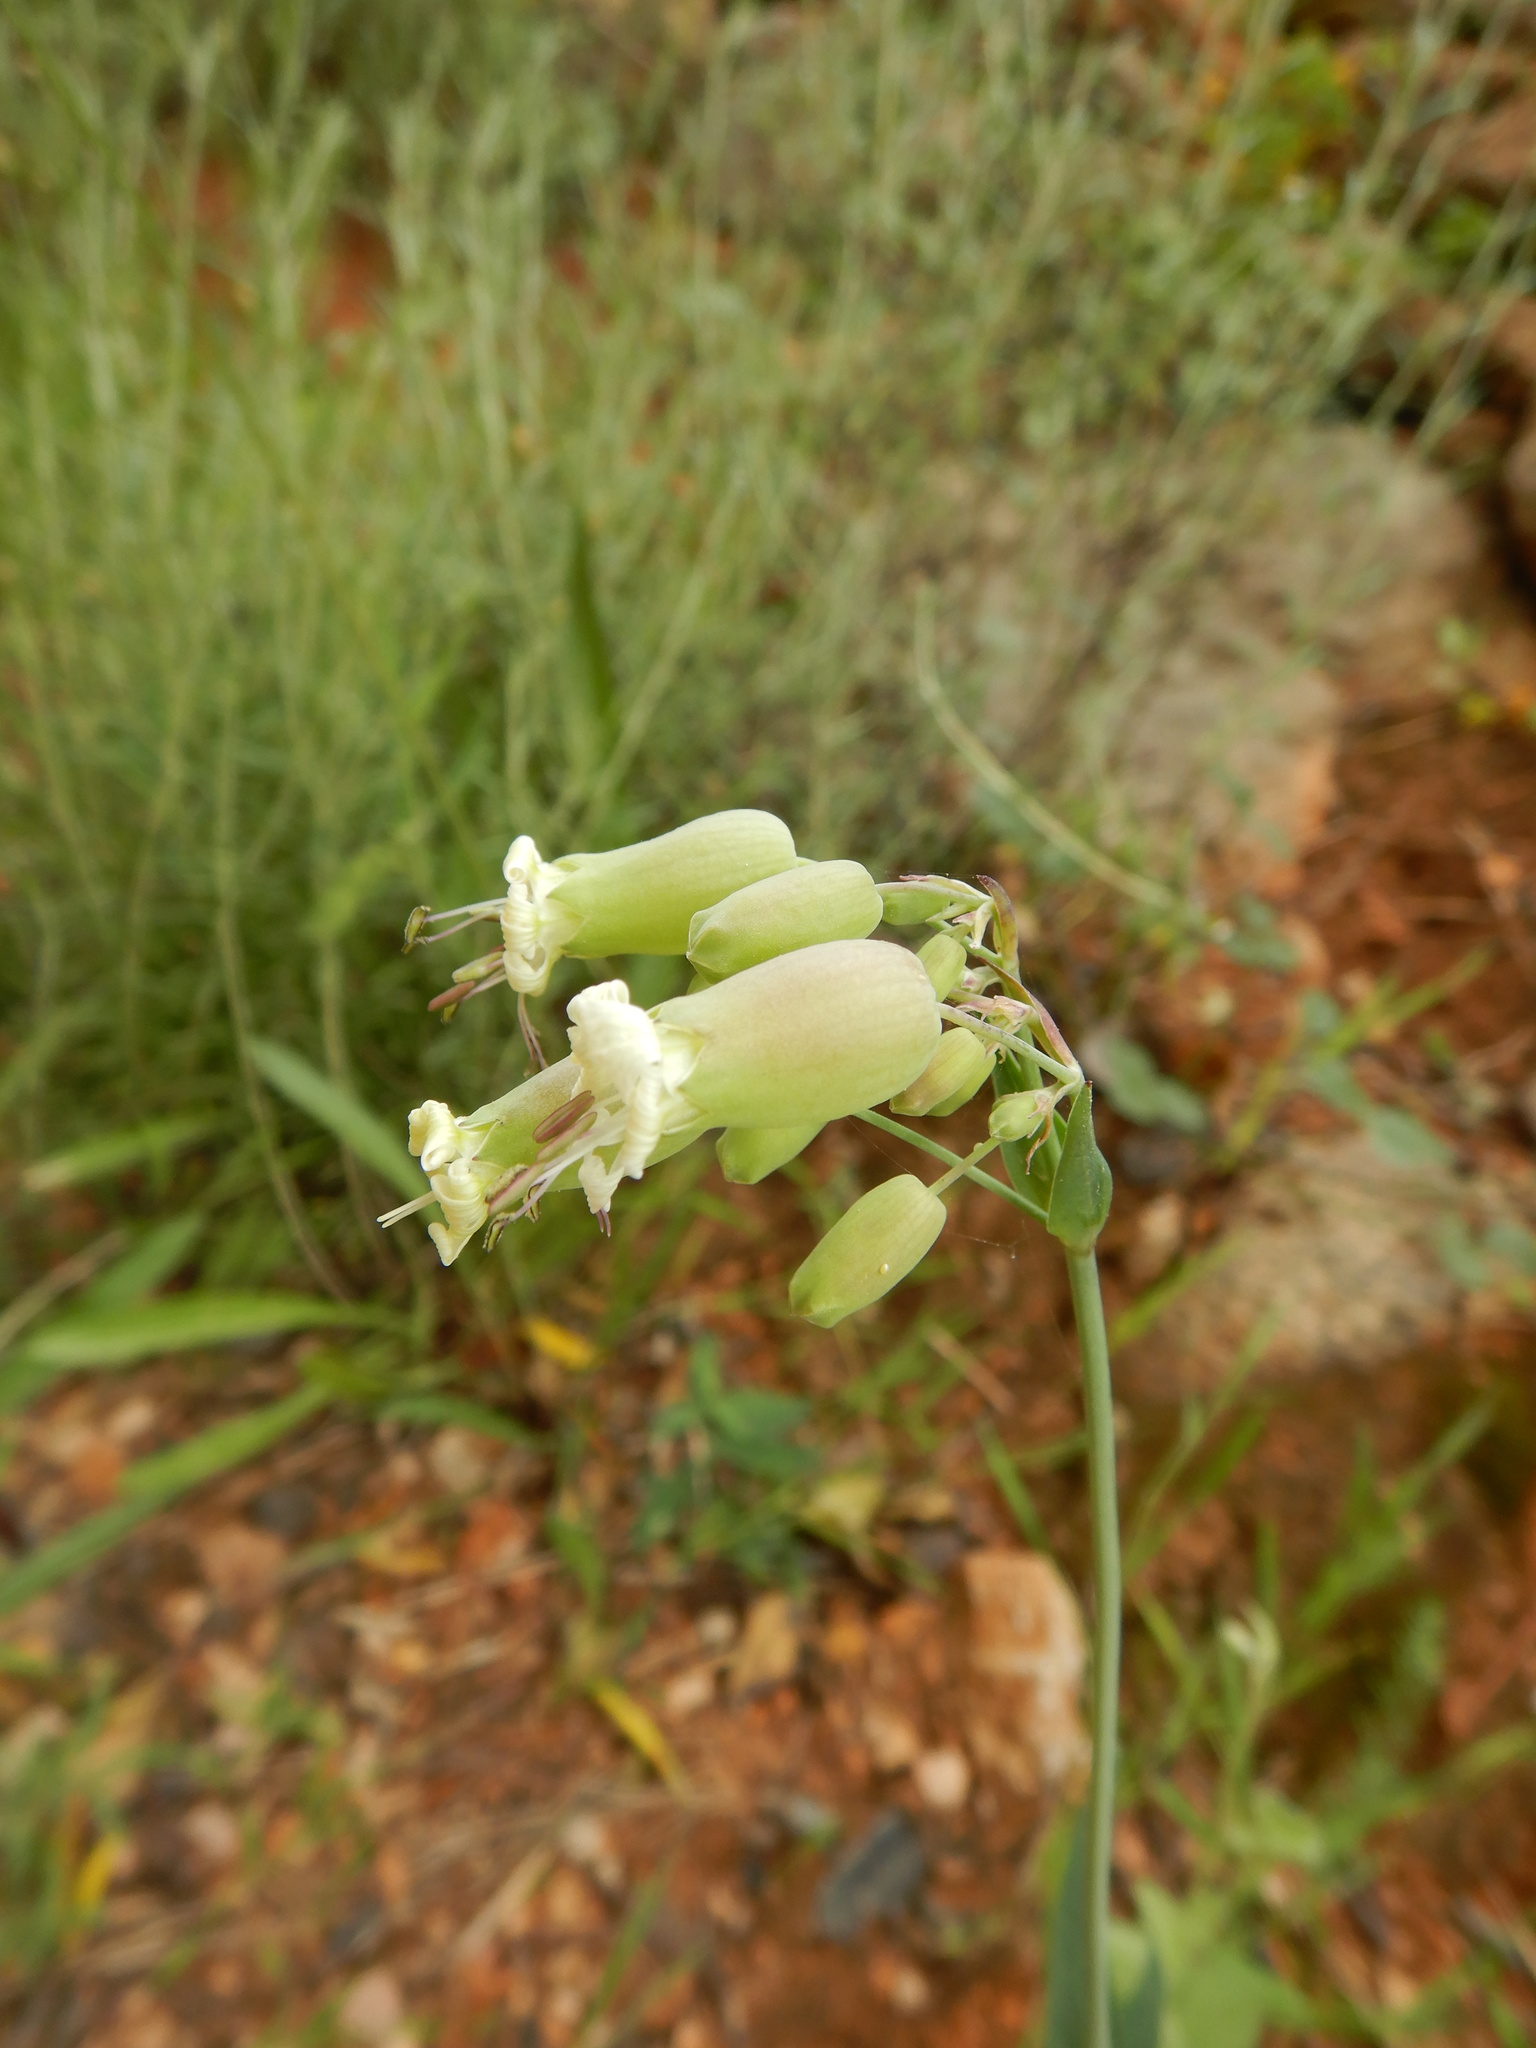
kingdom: Plantae
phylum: Tracheophyta
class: Magnoliopsida
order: Caryophyllales
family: Caryophyllaceae
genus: Silene
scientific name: Silene vulgaris
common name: Bladder campion
